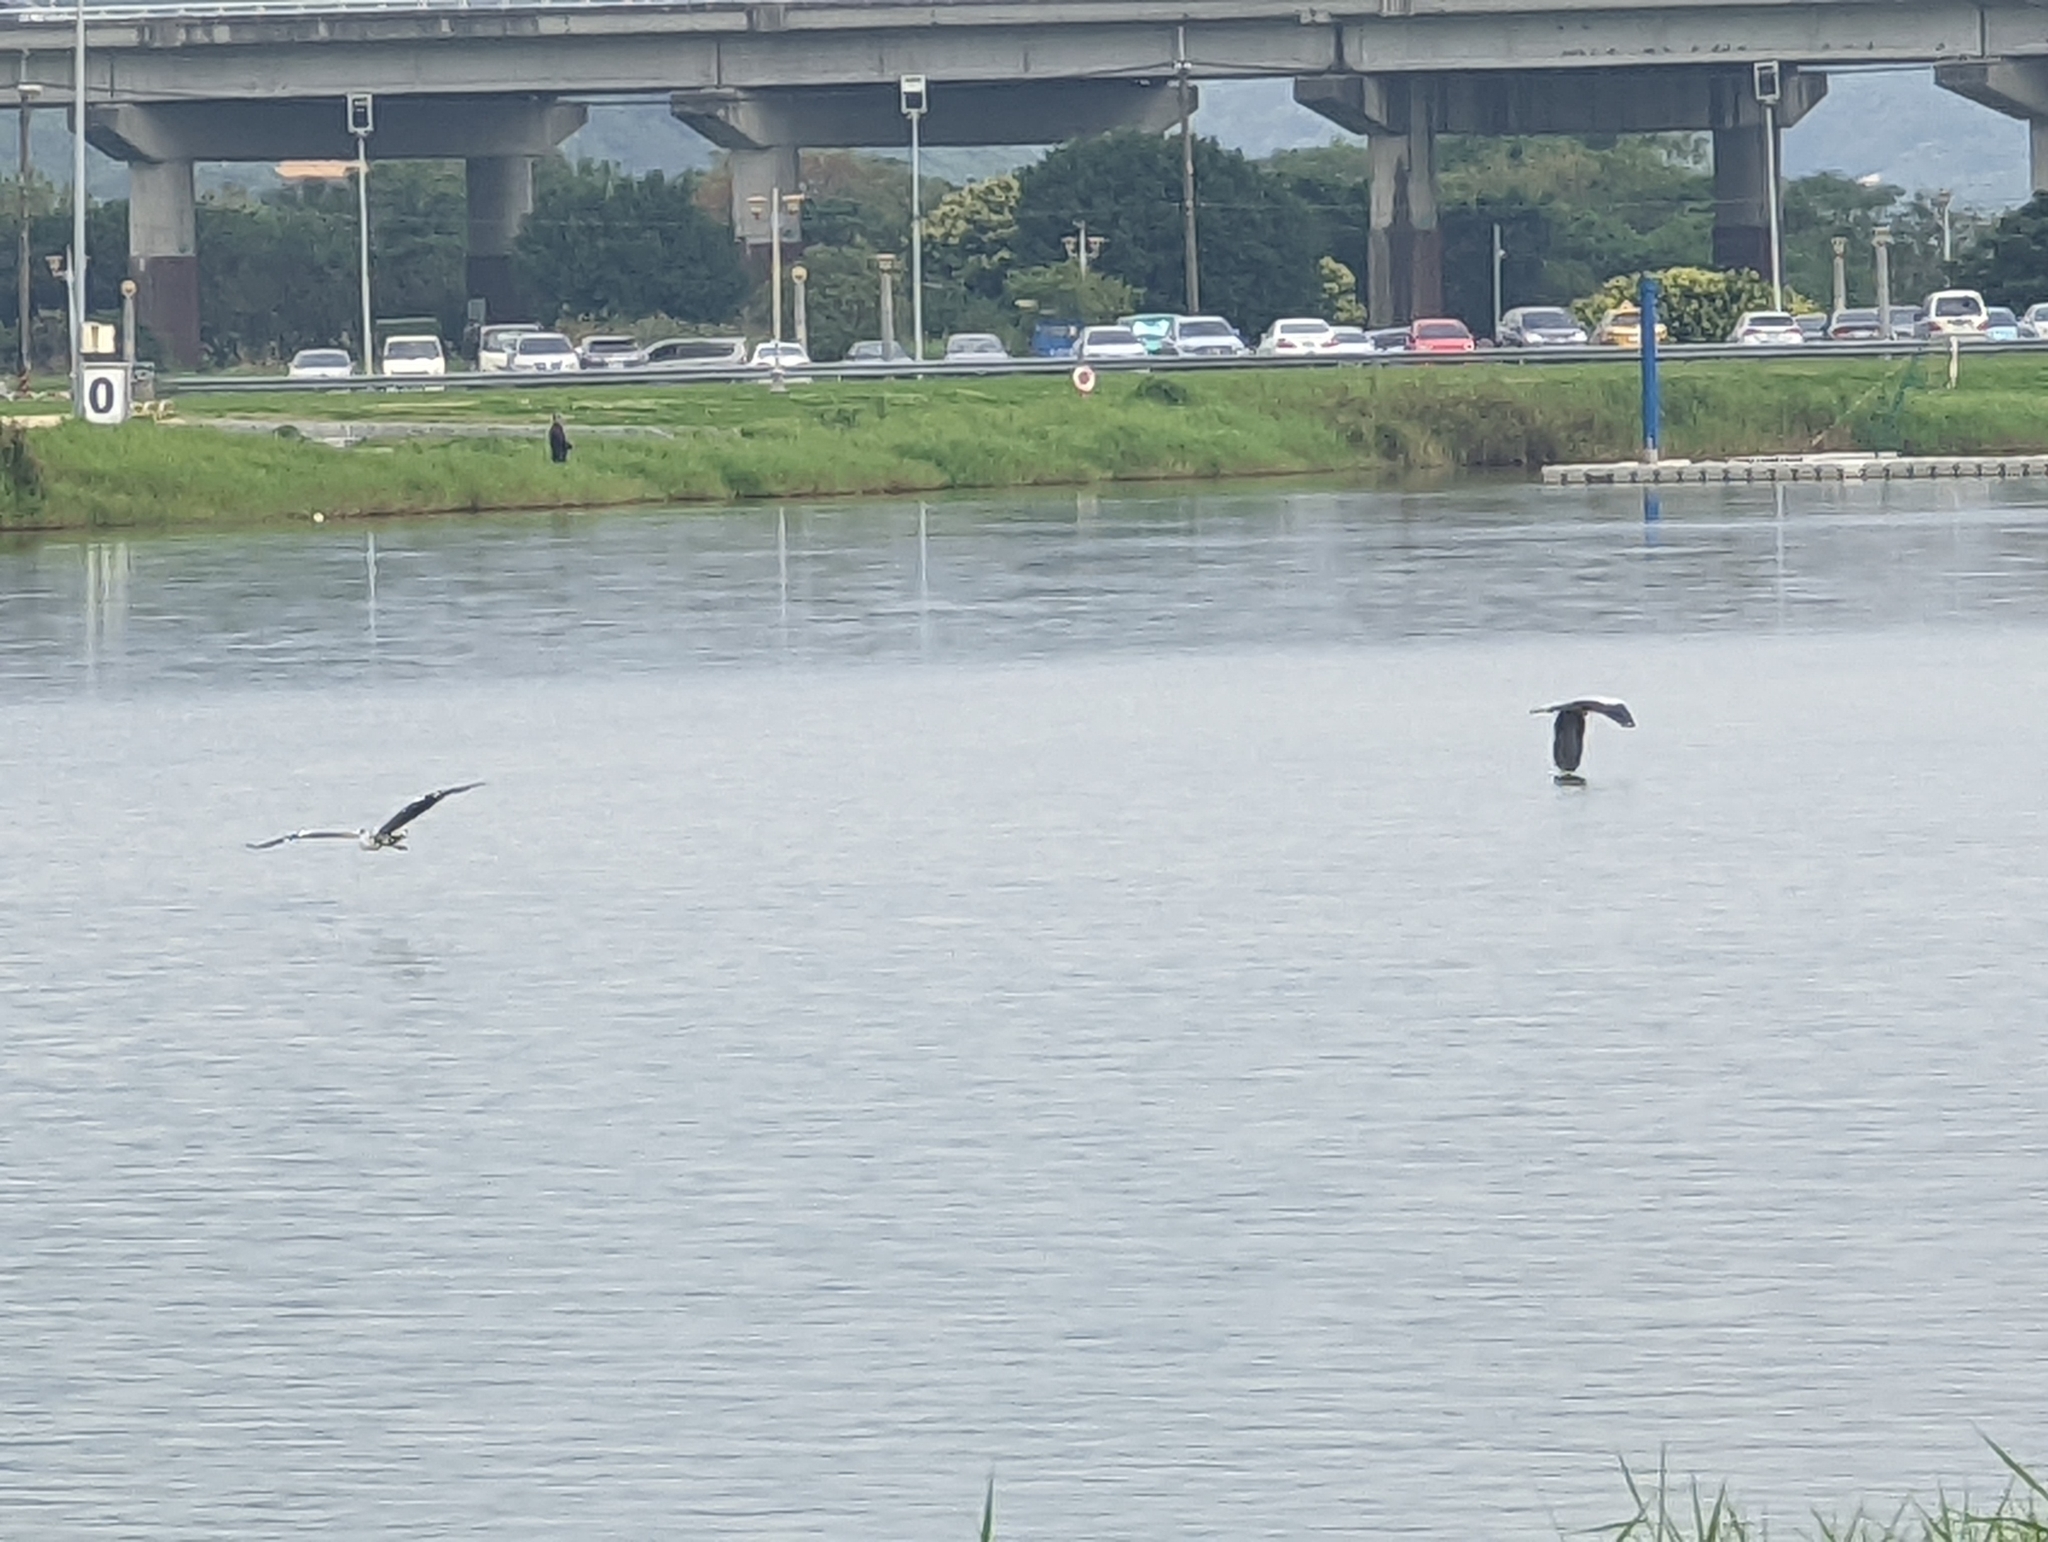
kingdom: Animalia
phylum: Chordata
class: Aves
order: Pelecaniformes
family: Ardeidae
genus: Ardea
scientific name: Ardea cinerea
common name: Grey heron
